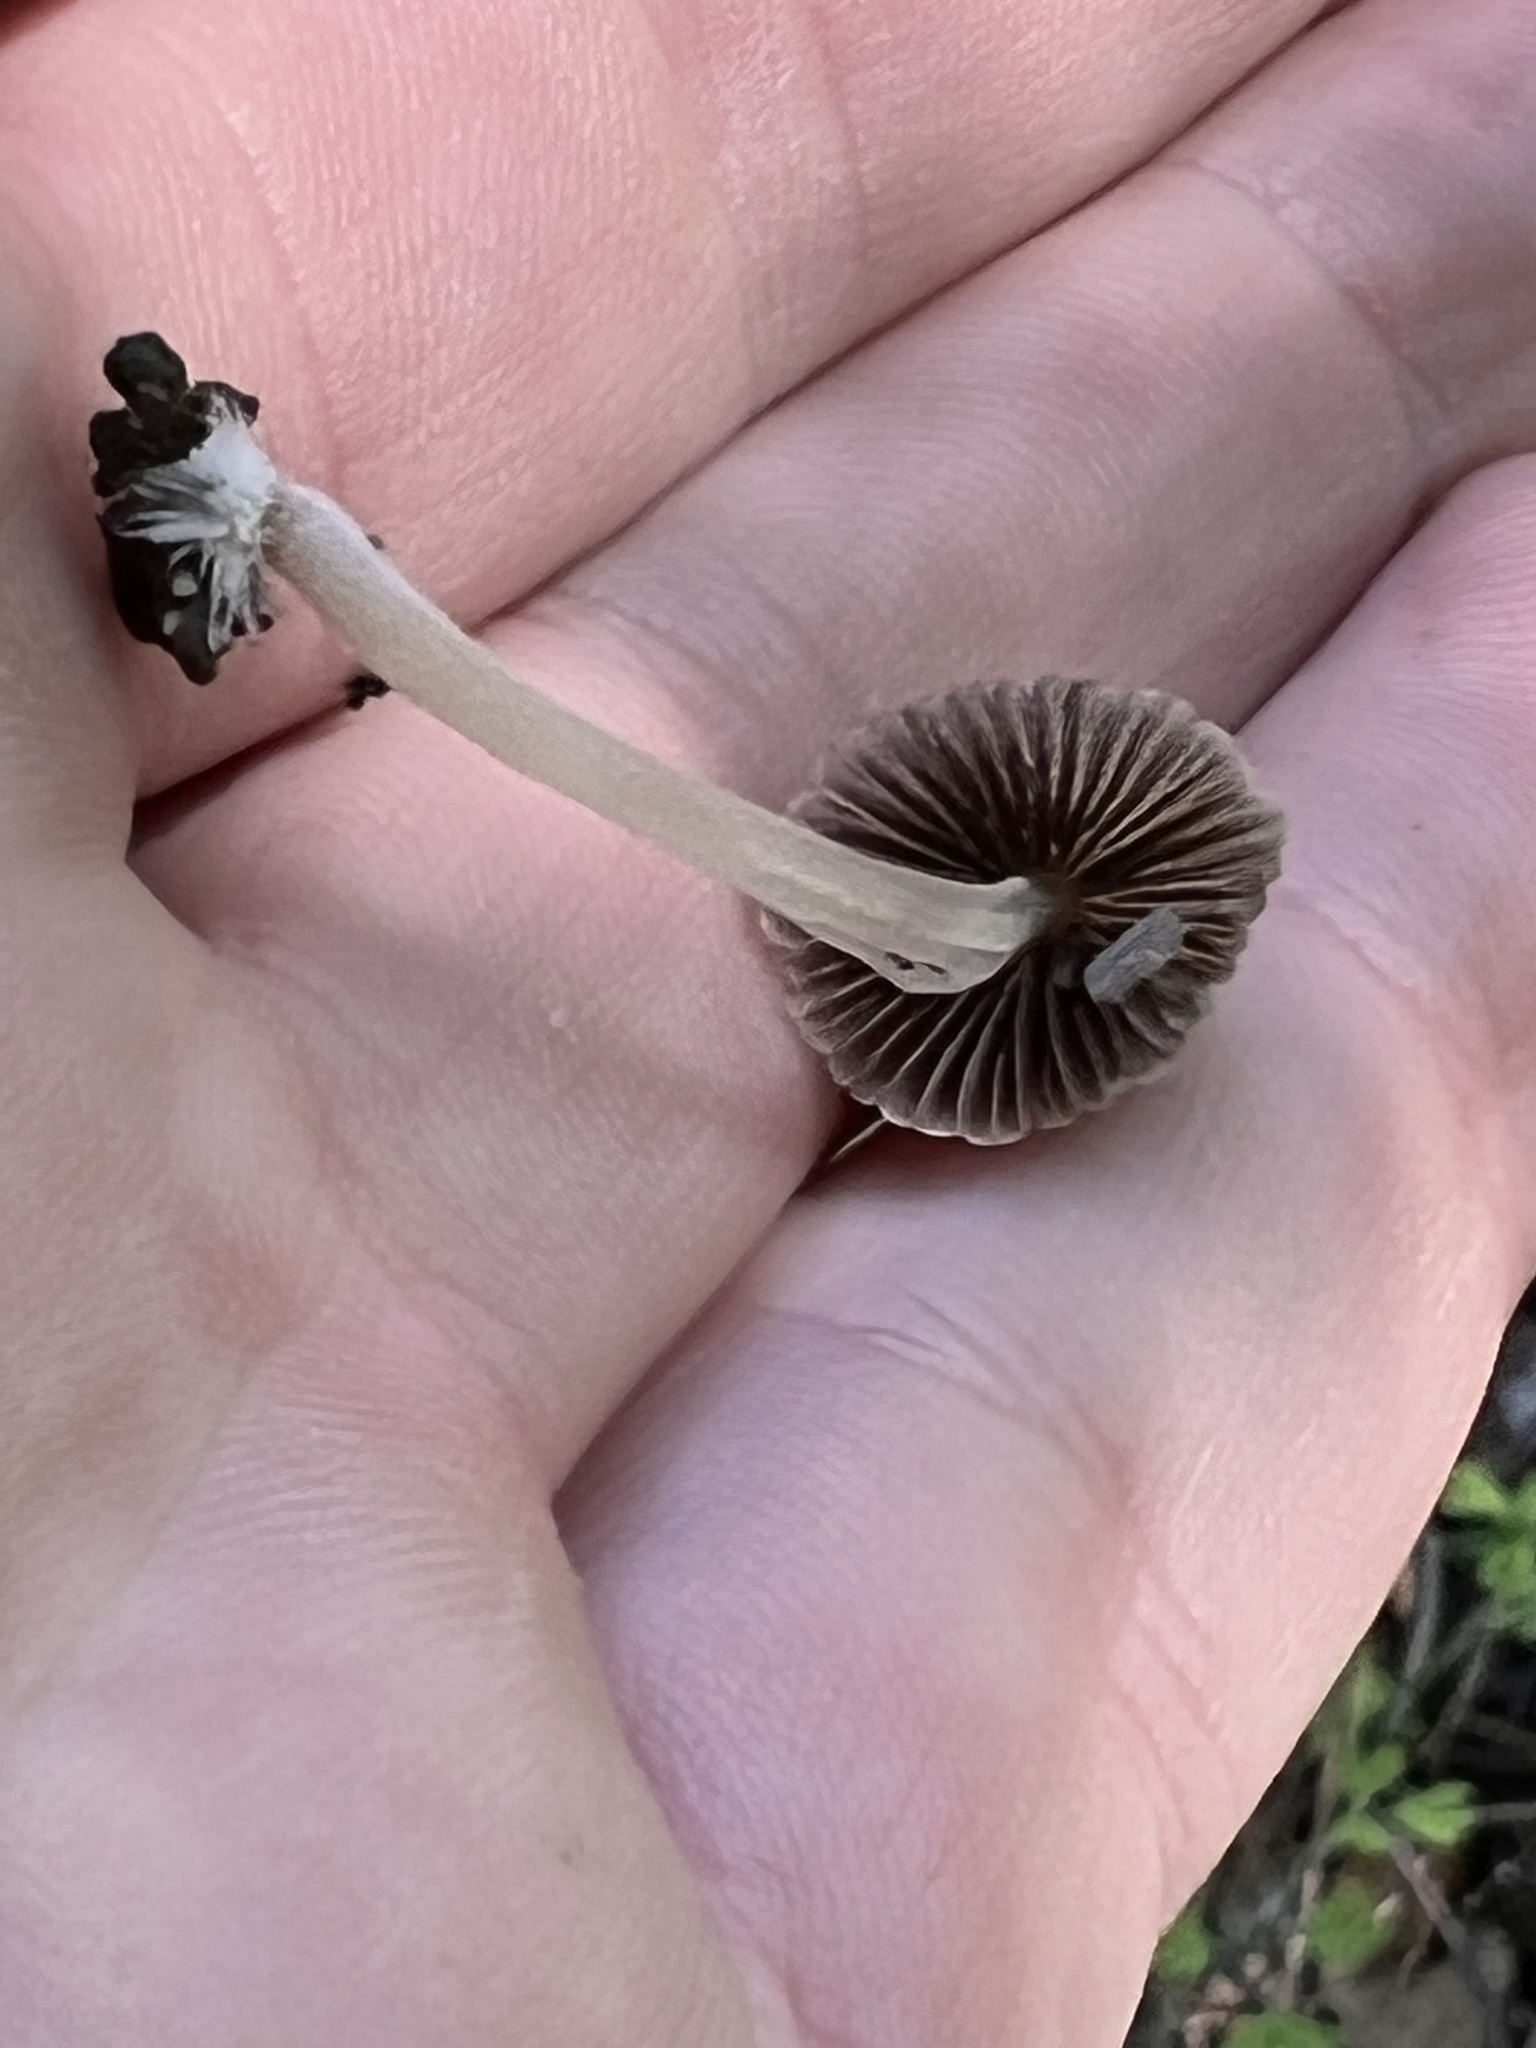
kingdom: Fungi
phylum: Basidiomycota
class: Agaricomycetes
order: Agaricales
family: Psathyrellaceae
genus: Coprinellus
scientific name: Coprinellus disseminatus
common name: Fairies' bonnets
